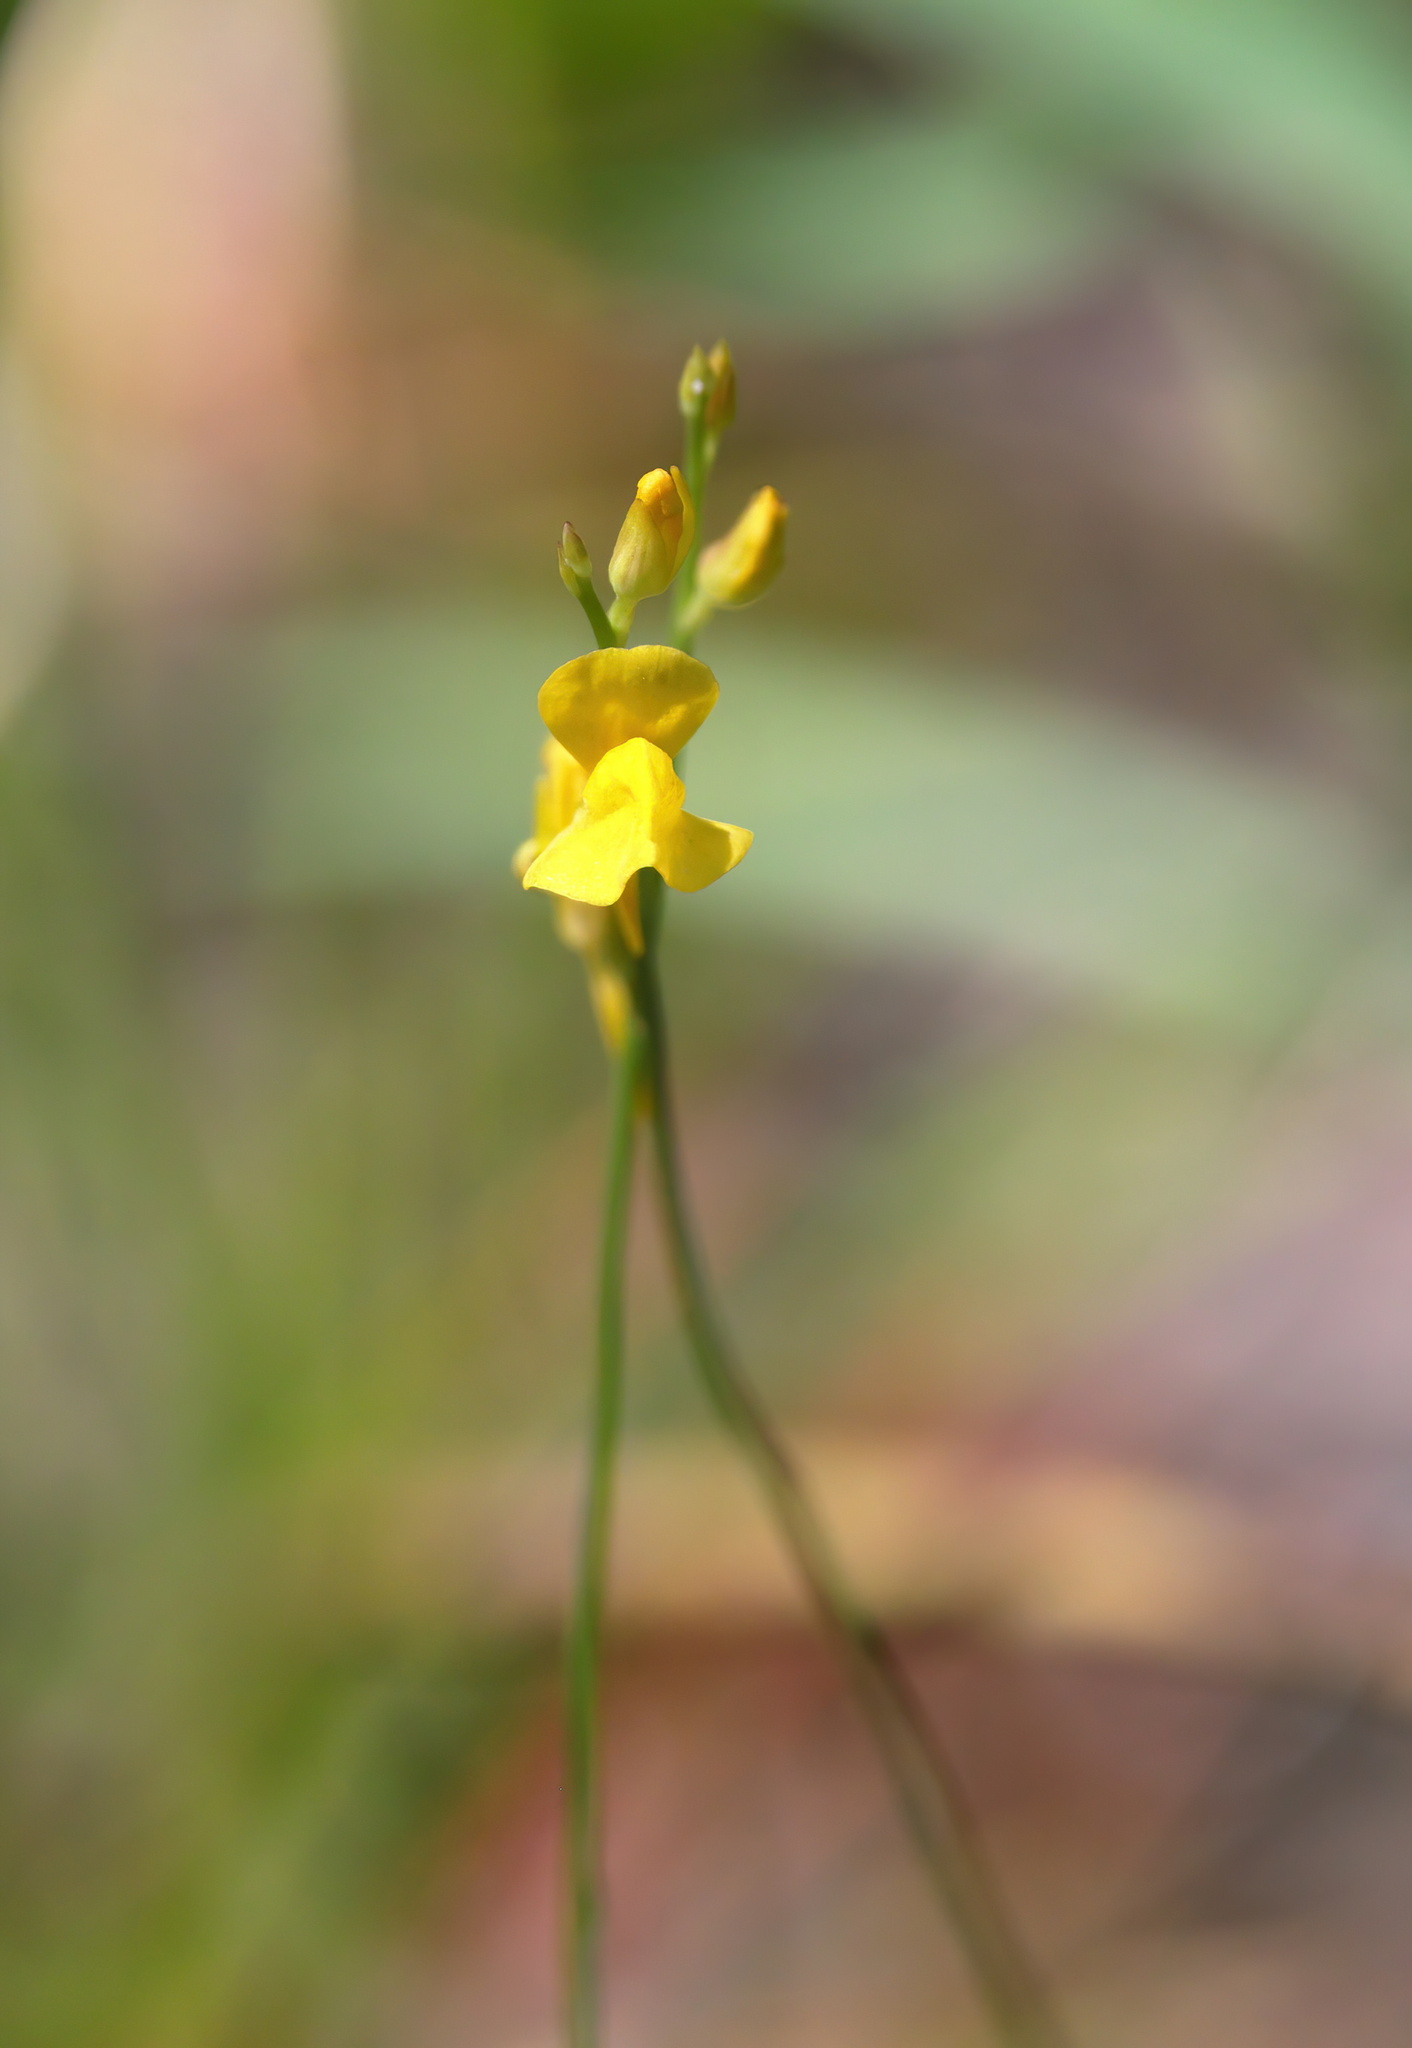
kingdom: Plantae
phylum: Tracheophyta
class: Magnoliopsida
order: Lamiales
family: Lentibulariaceae
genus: Utricularia
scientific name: Utricularia juncea
